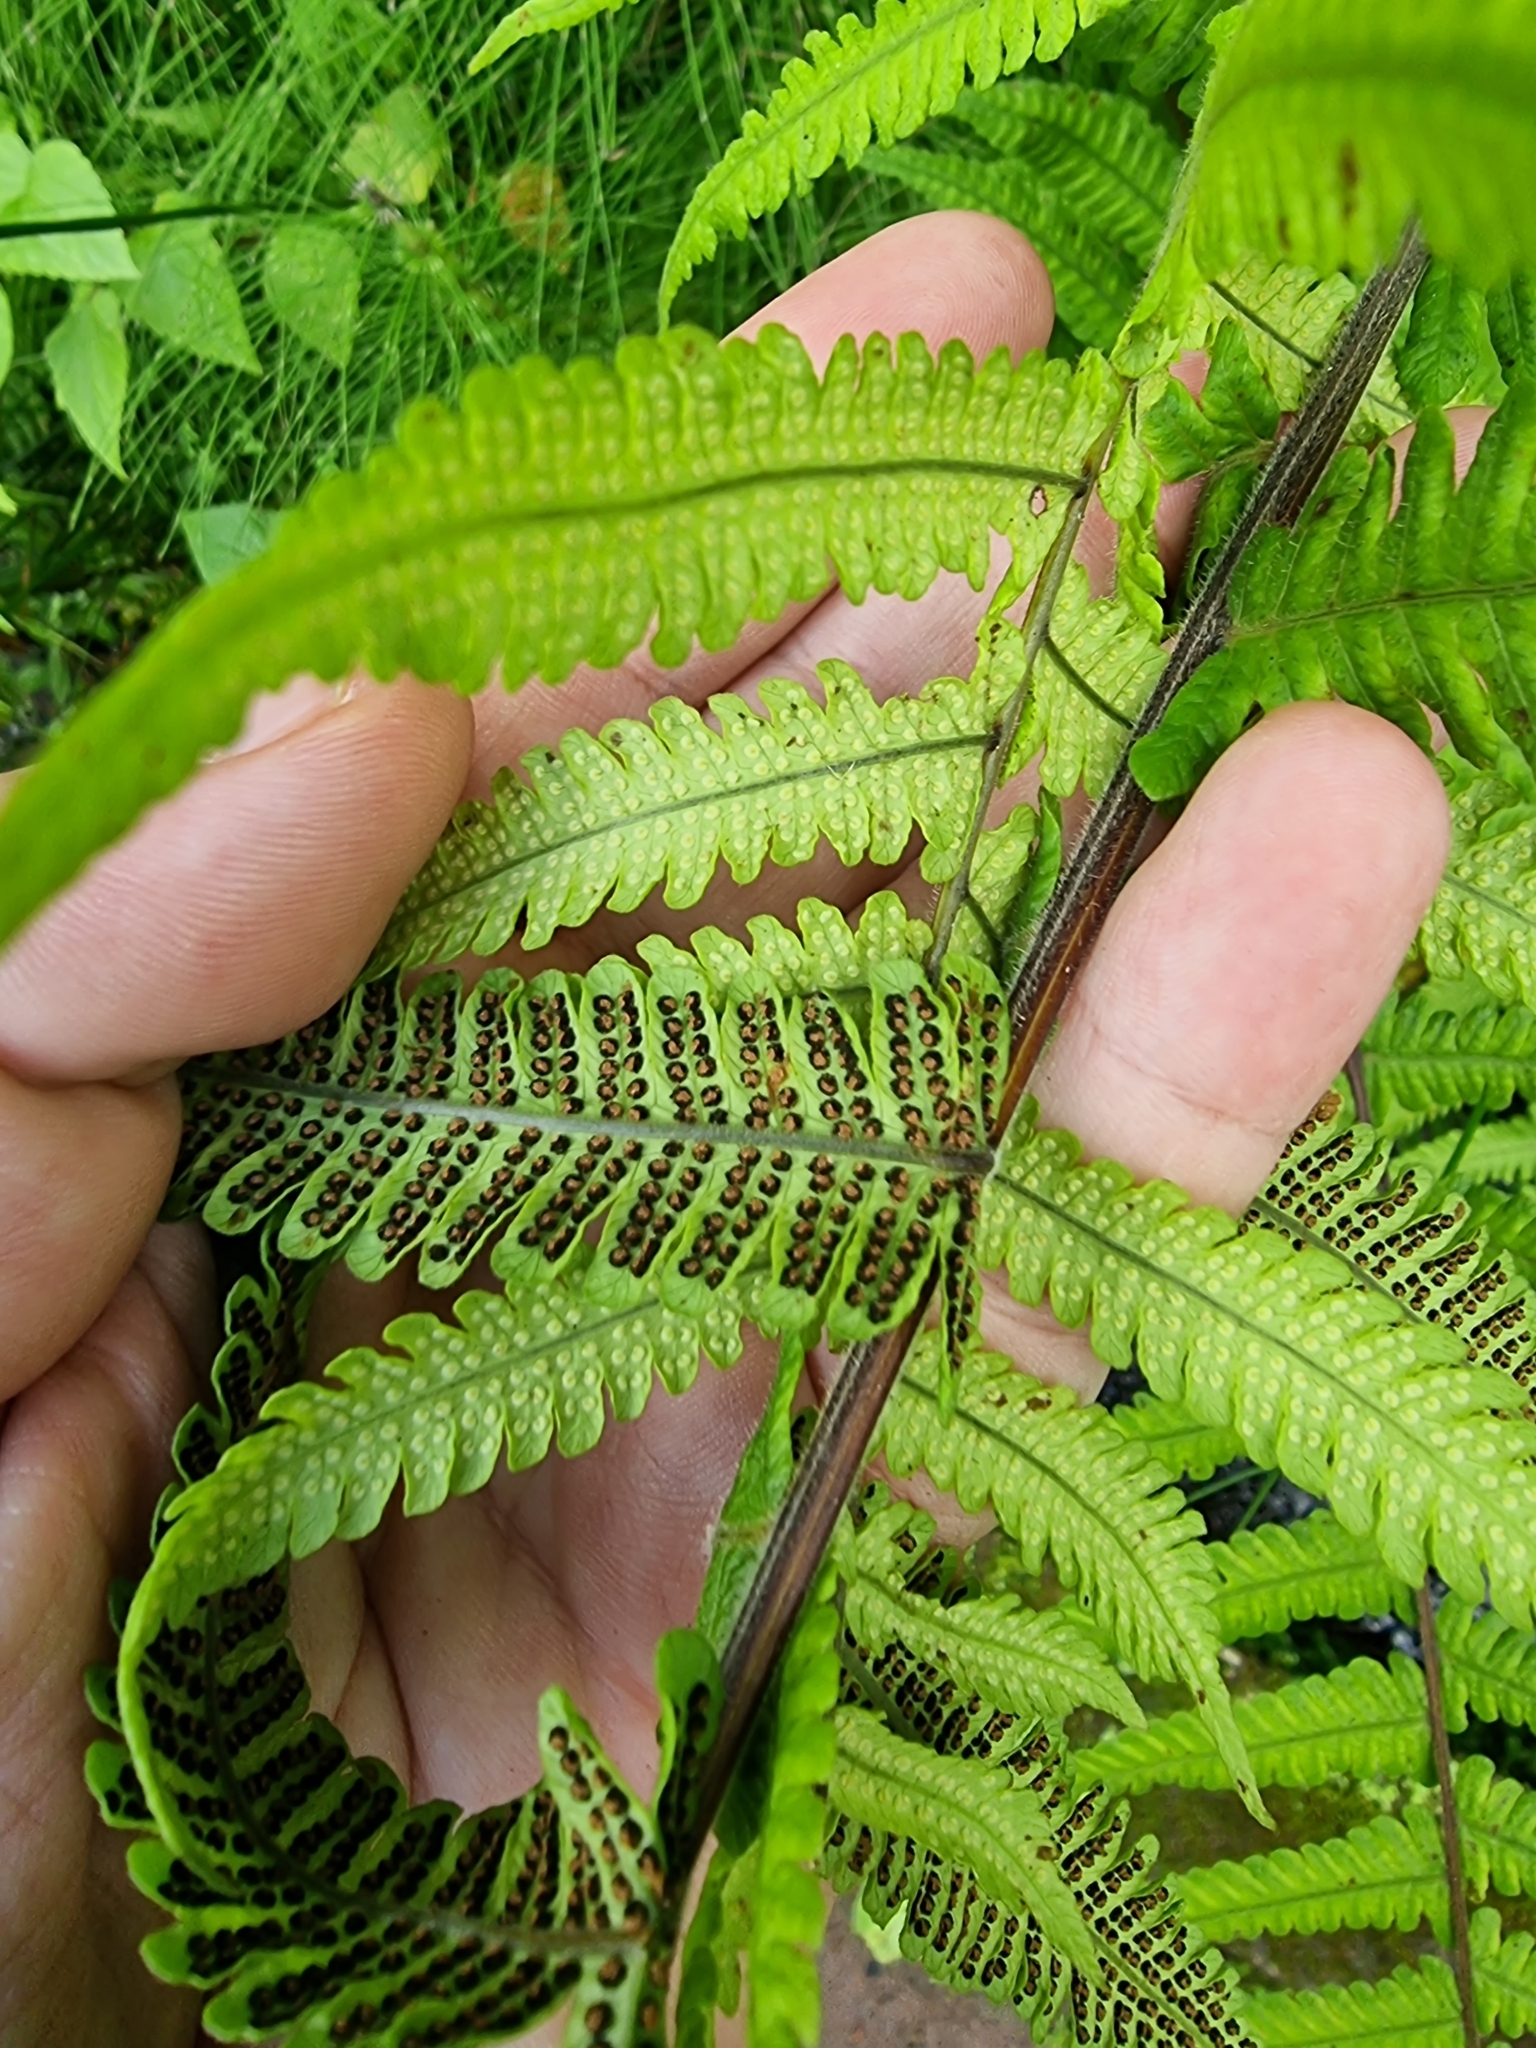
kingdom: Plantae
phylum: Tracheophyta
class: Polypodiopsida
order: Polypodiales
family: Thelypteridaceae
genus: Christella
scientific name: Christella dentata
